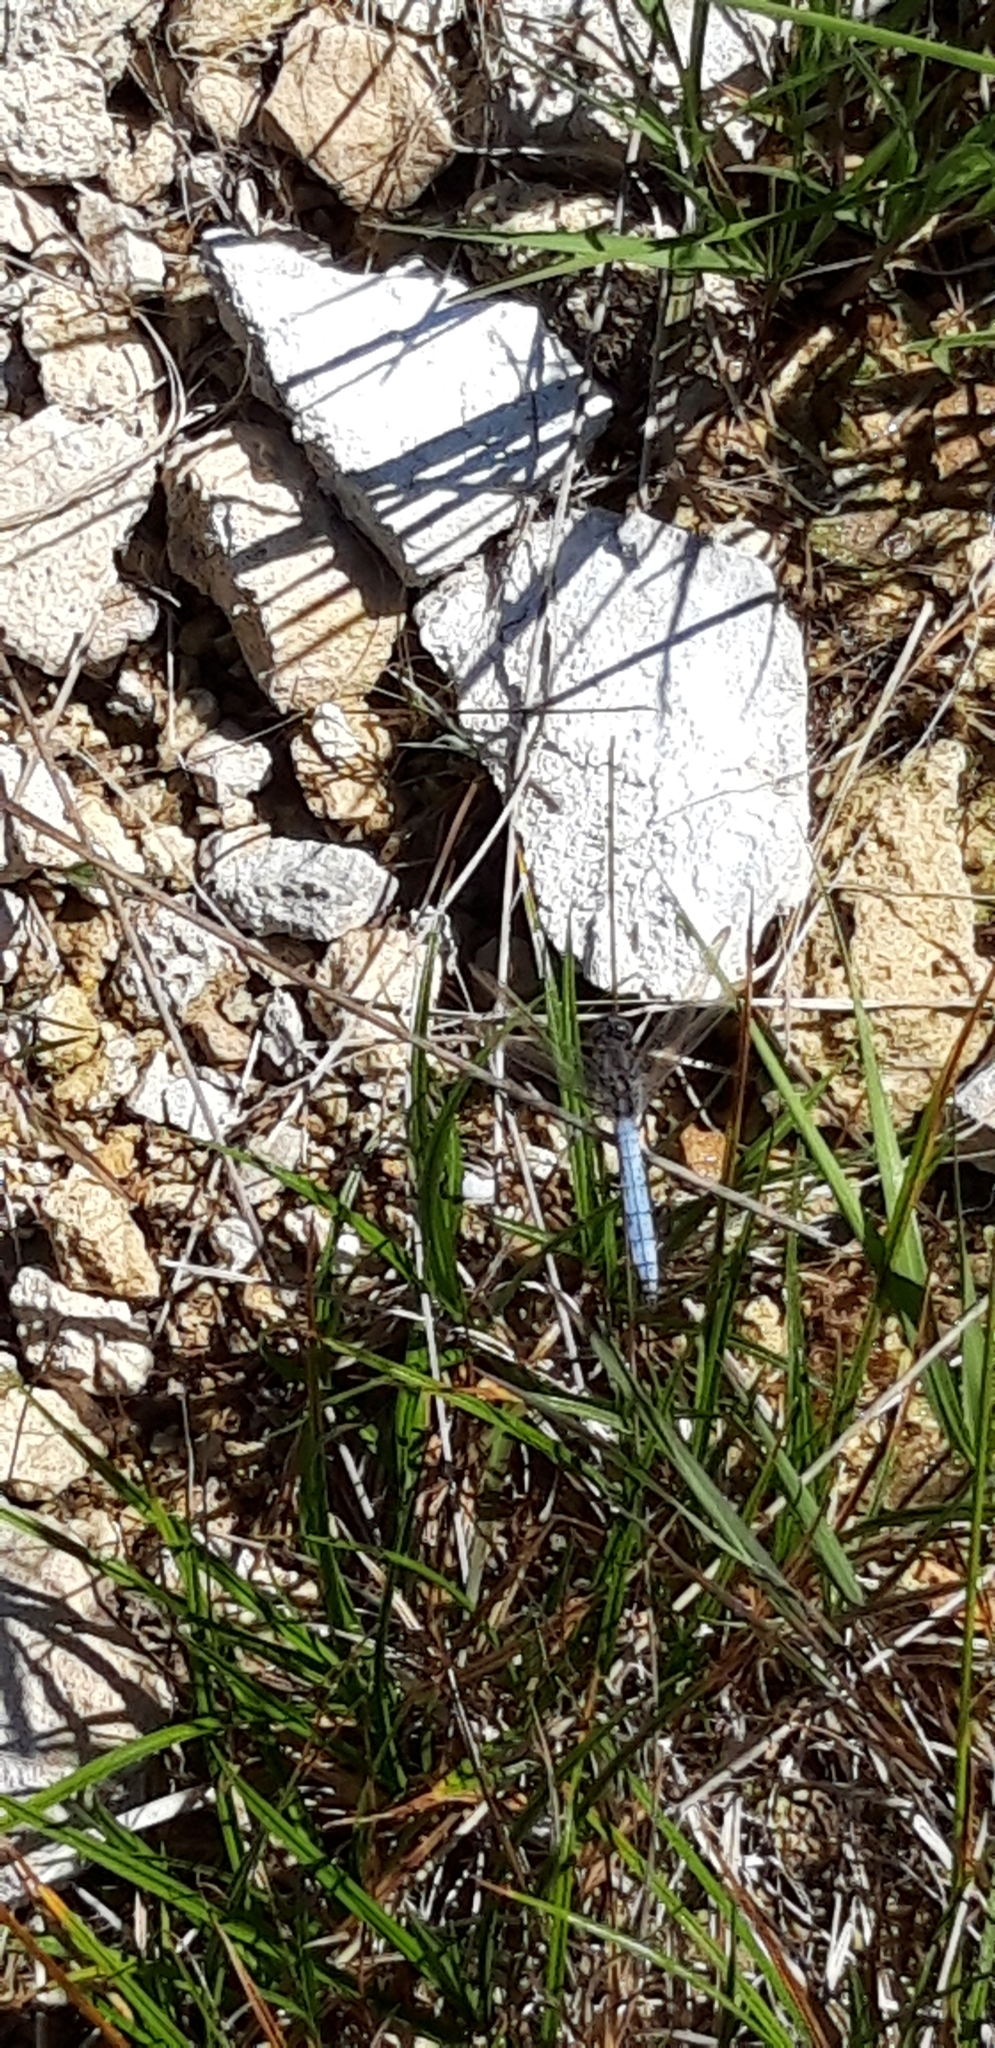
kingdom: Animalia
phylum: Arthropoda
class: Insecta
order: Odonata
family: Libellulidae
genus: Orthetrum
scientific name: Orthetrum coerulescens
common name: Keeled skimmer
